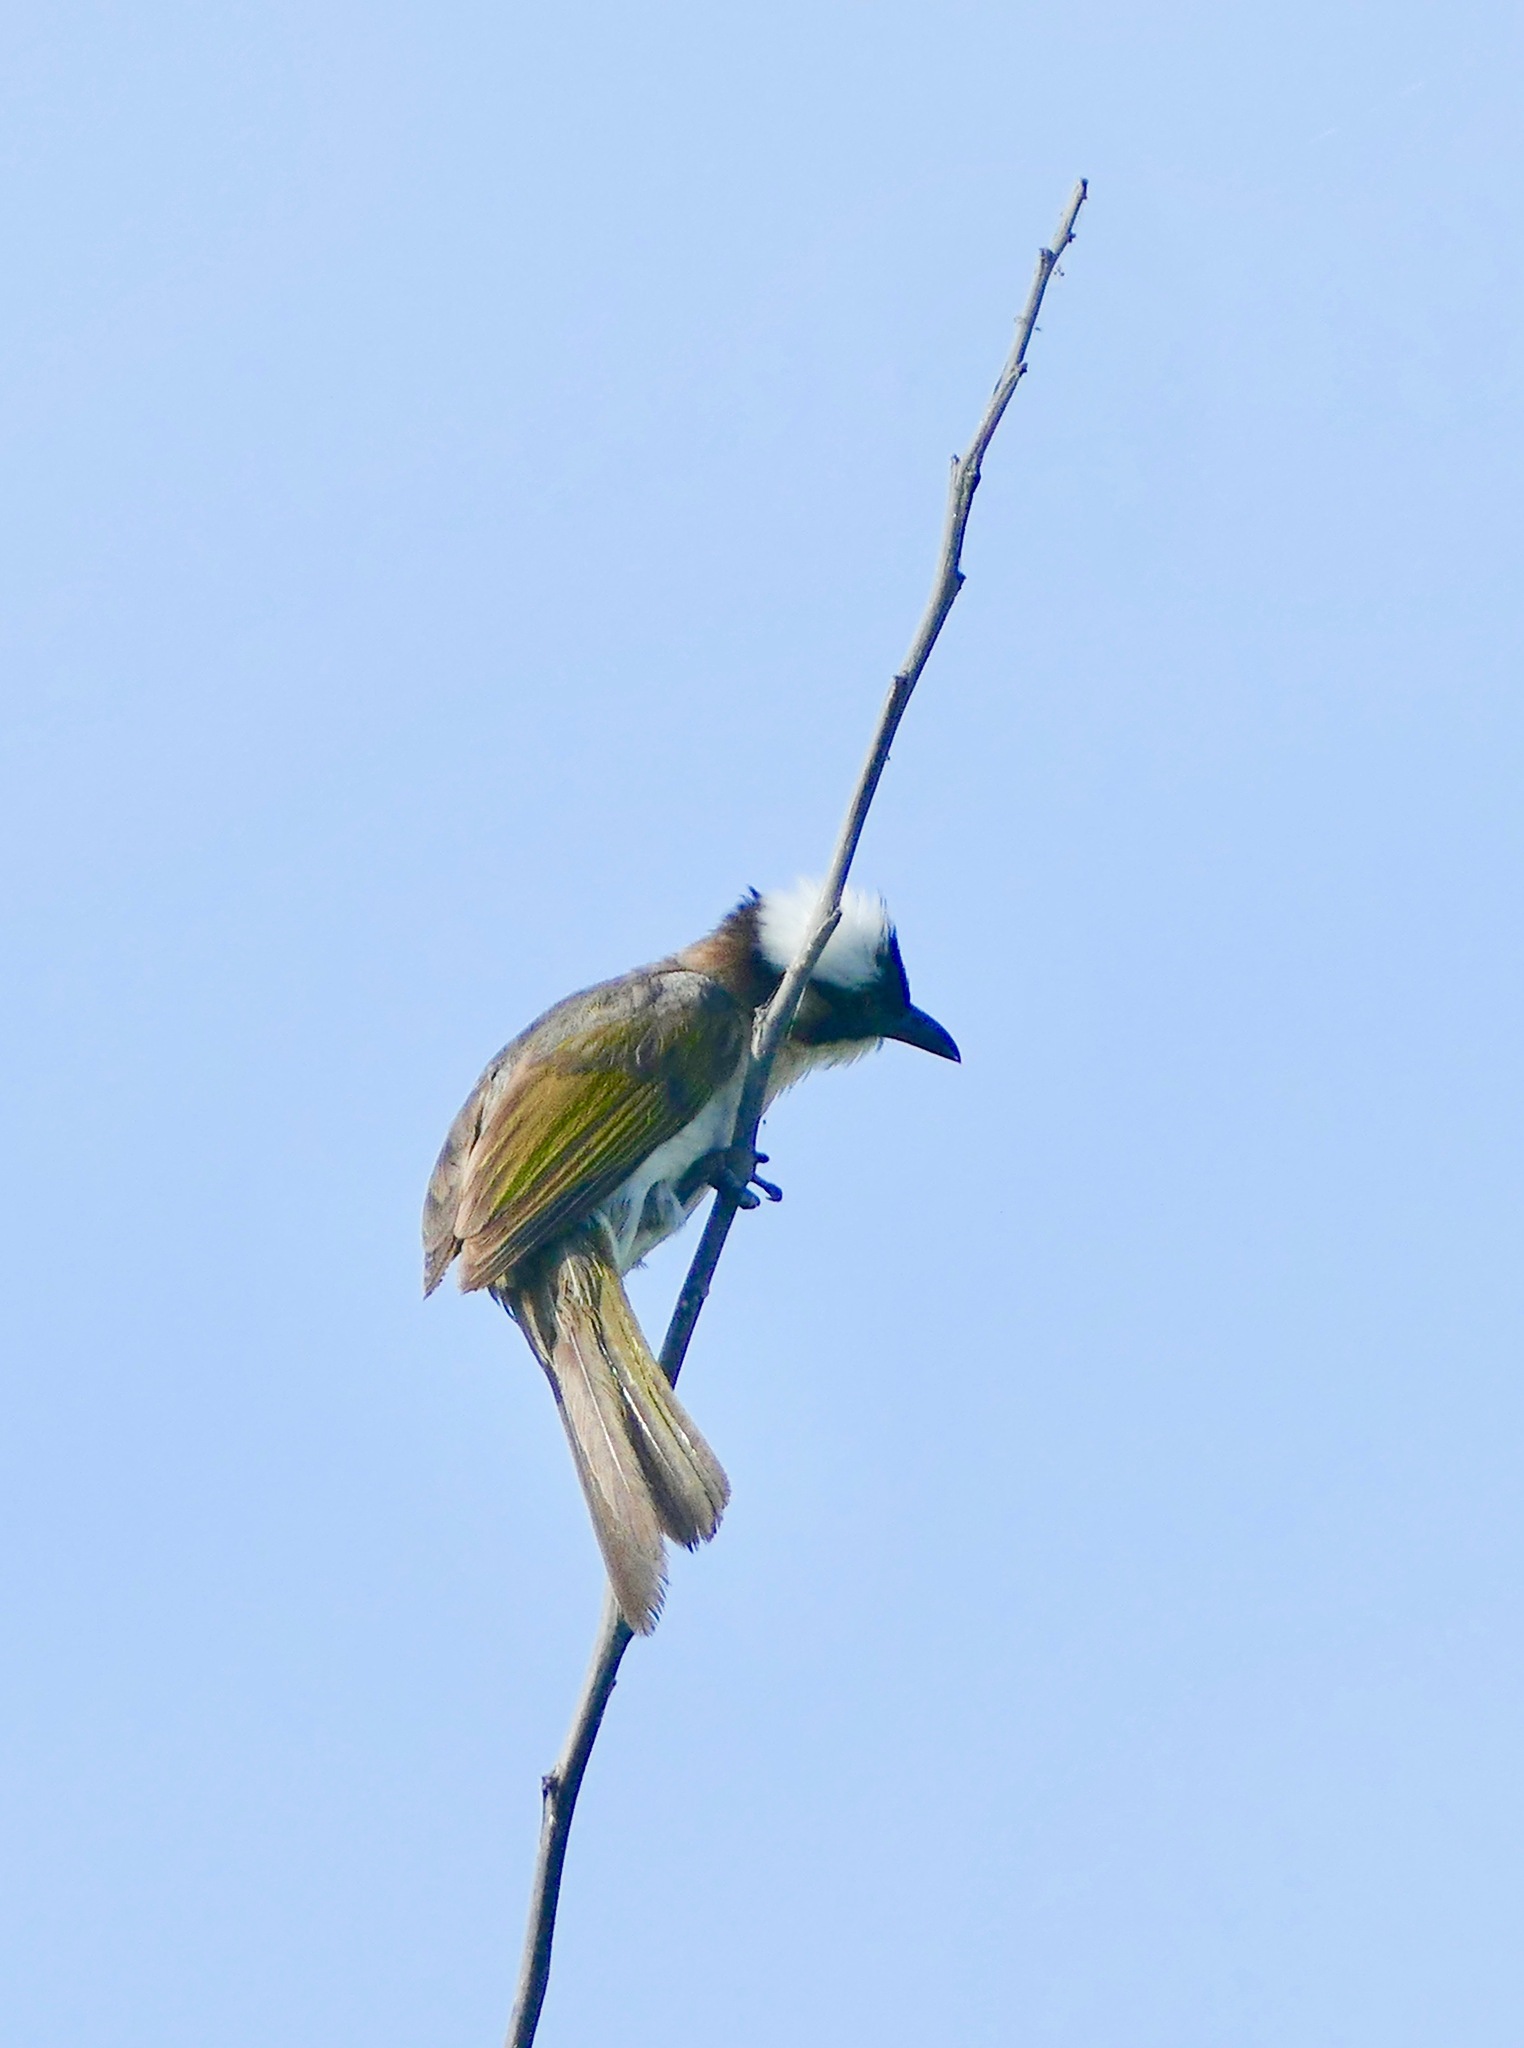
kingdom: Animalia
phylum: Chordata
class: Aves
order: Passeriformes
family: Pycnonotidae
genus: Pycnonotus
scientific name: Pycnonotus sinensis
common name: Light-vented bulbul
